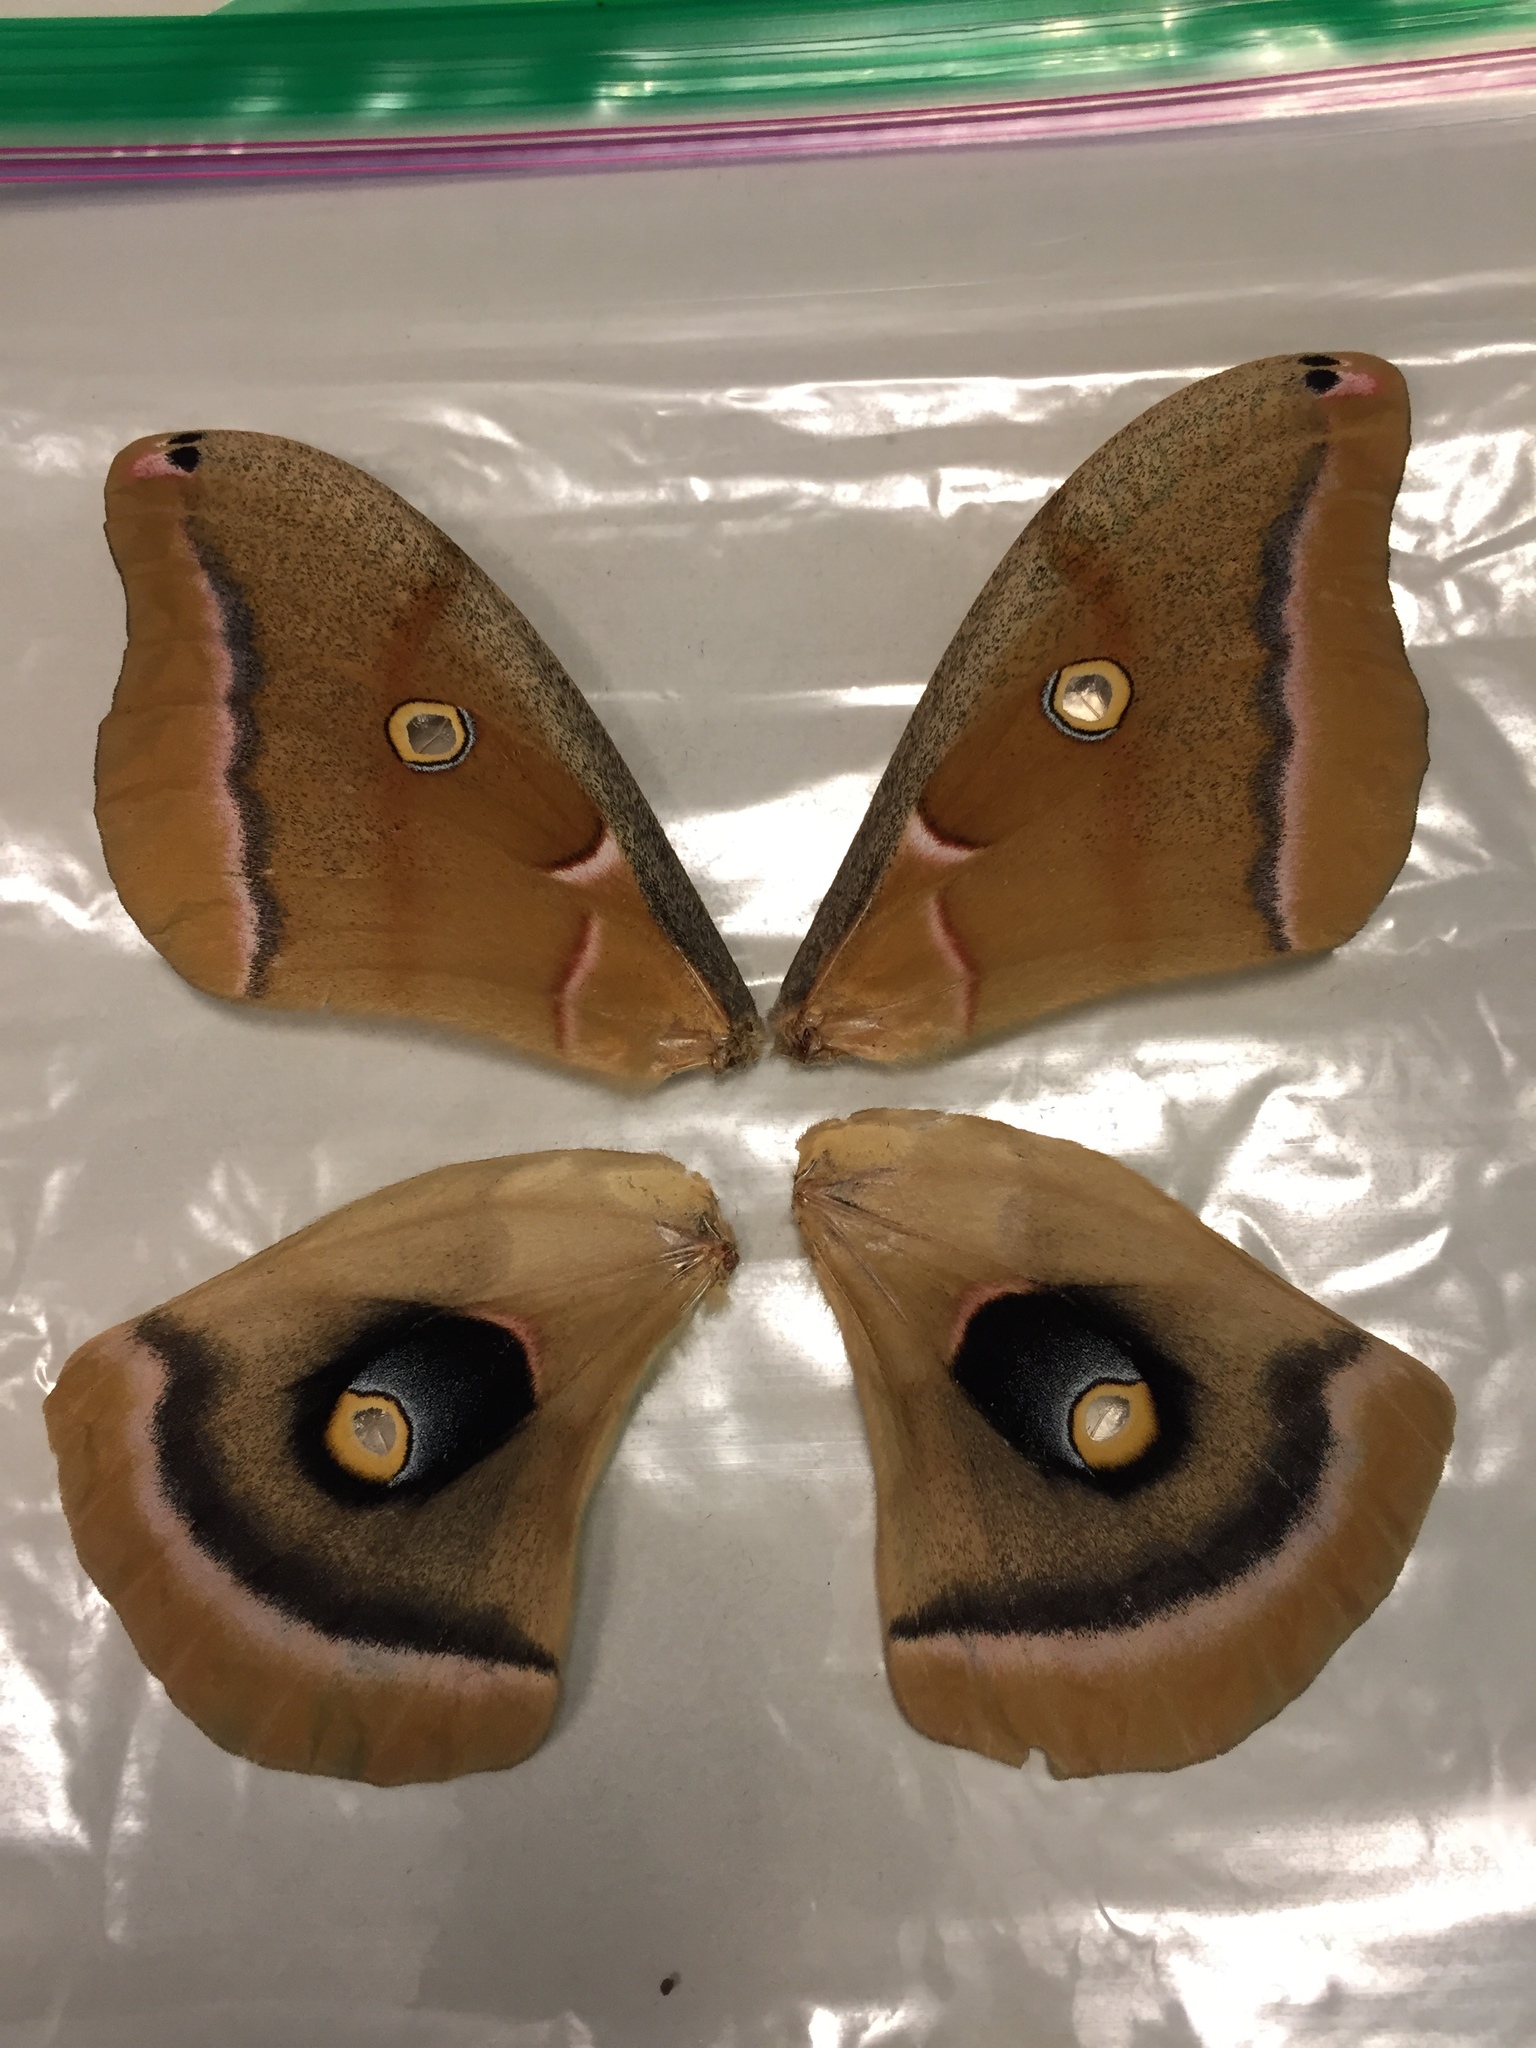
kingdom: Animalia
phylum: Arthropoda
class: Insecta
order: Lepidoptera
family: Saturniidae
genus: Antheraea
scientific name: Antheraea polyphemus
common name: Polyphemus moth
